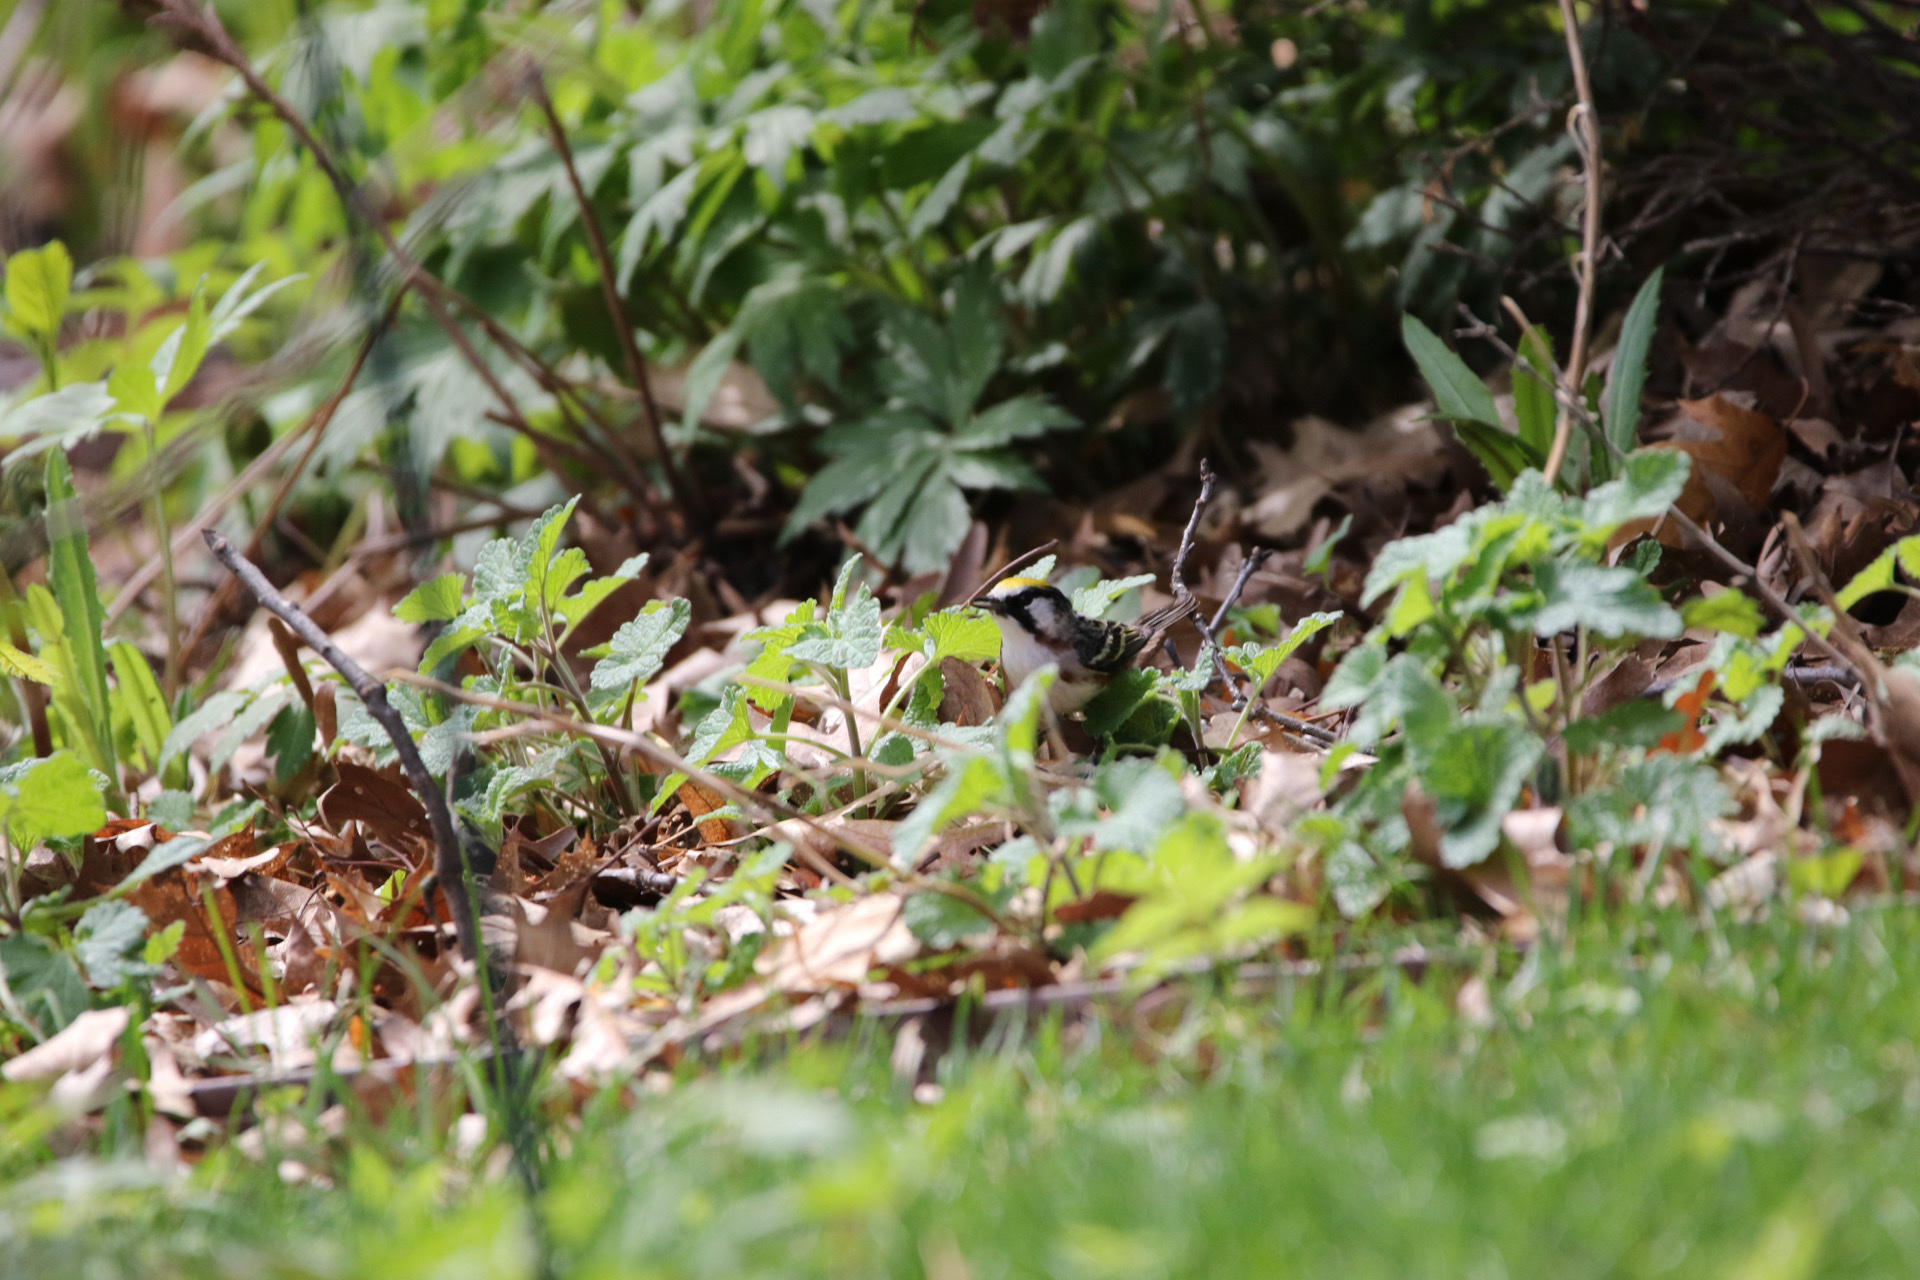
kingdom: Animalia
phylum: Chordata
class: Aves
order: Passeriformes
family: Parulidae
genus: Setophaga
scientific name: Setophaga pensylvanica
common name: Chestnut-sided warbler
